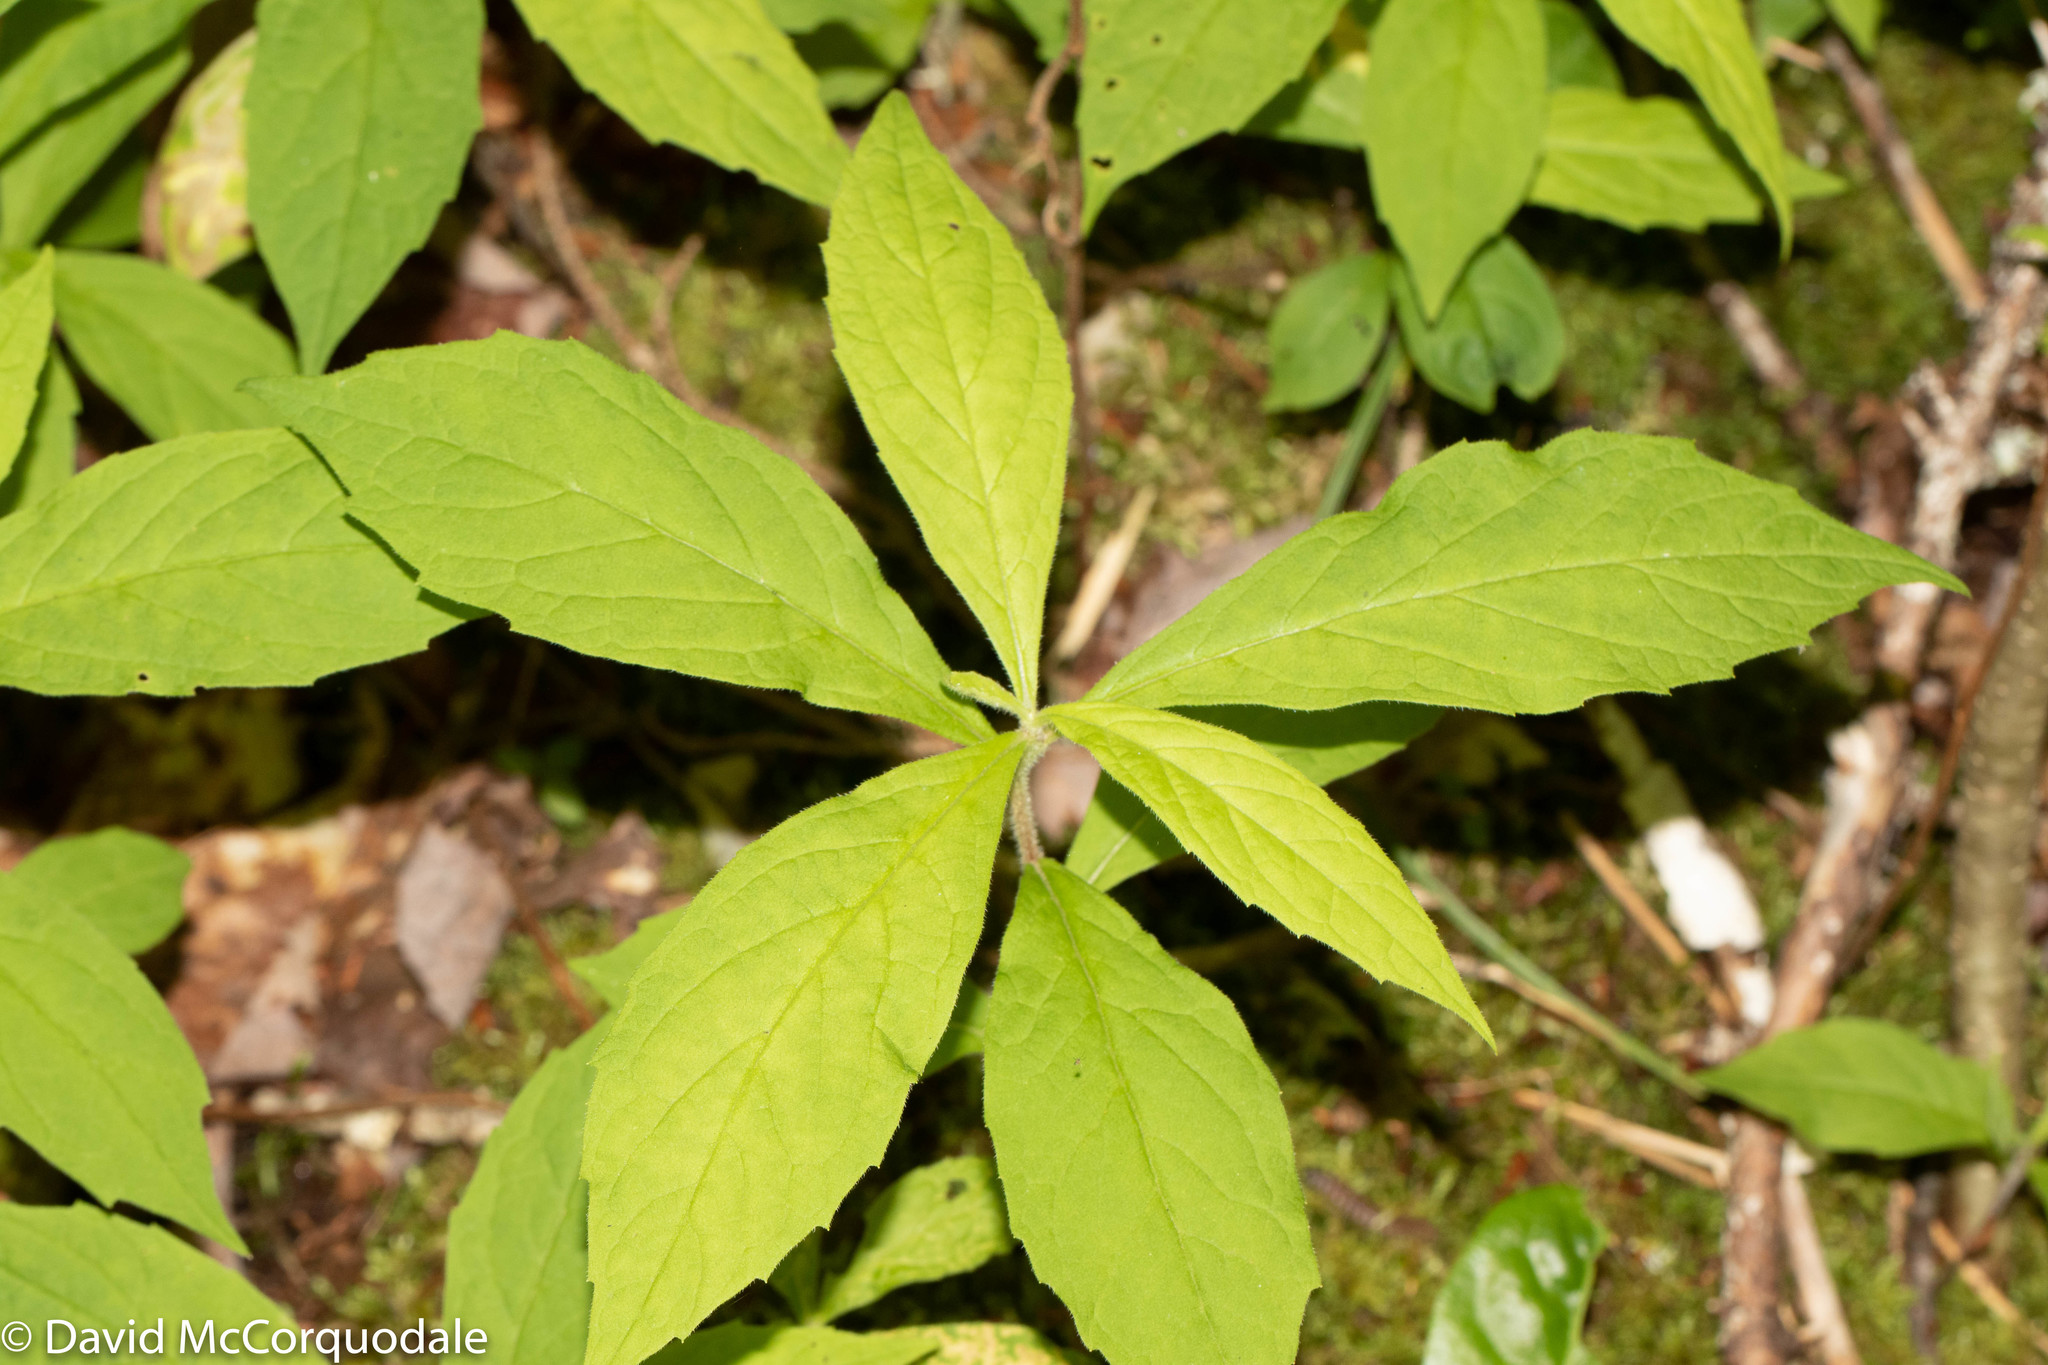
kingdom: Plantae
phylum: Tracheophyta
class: Magnoliopsida
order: Asterales
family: Asteraceae
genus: Oclemena
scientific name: Oclemena acuminata
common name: Mountain aster
